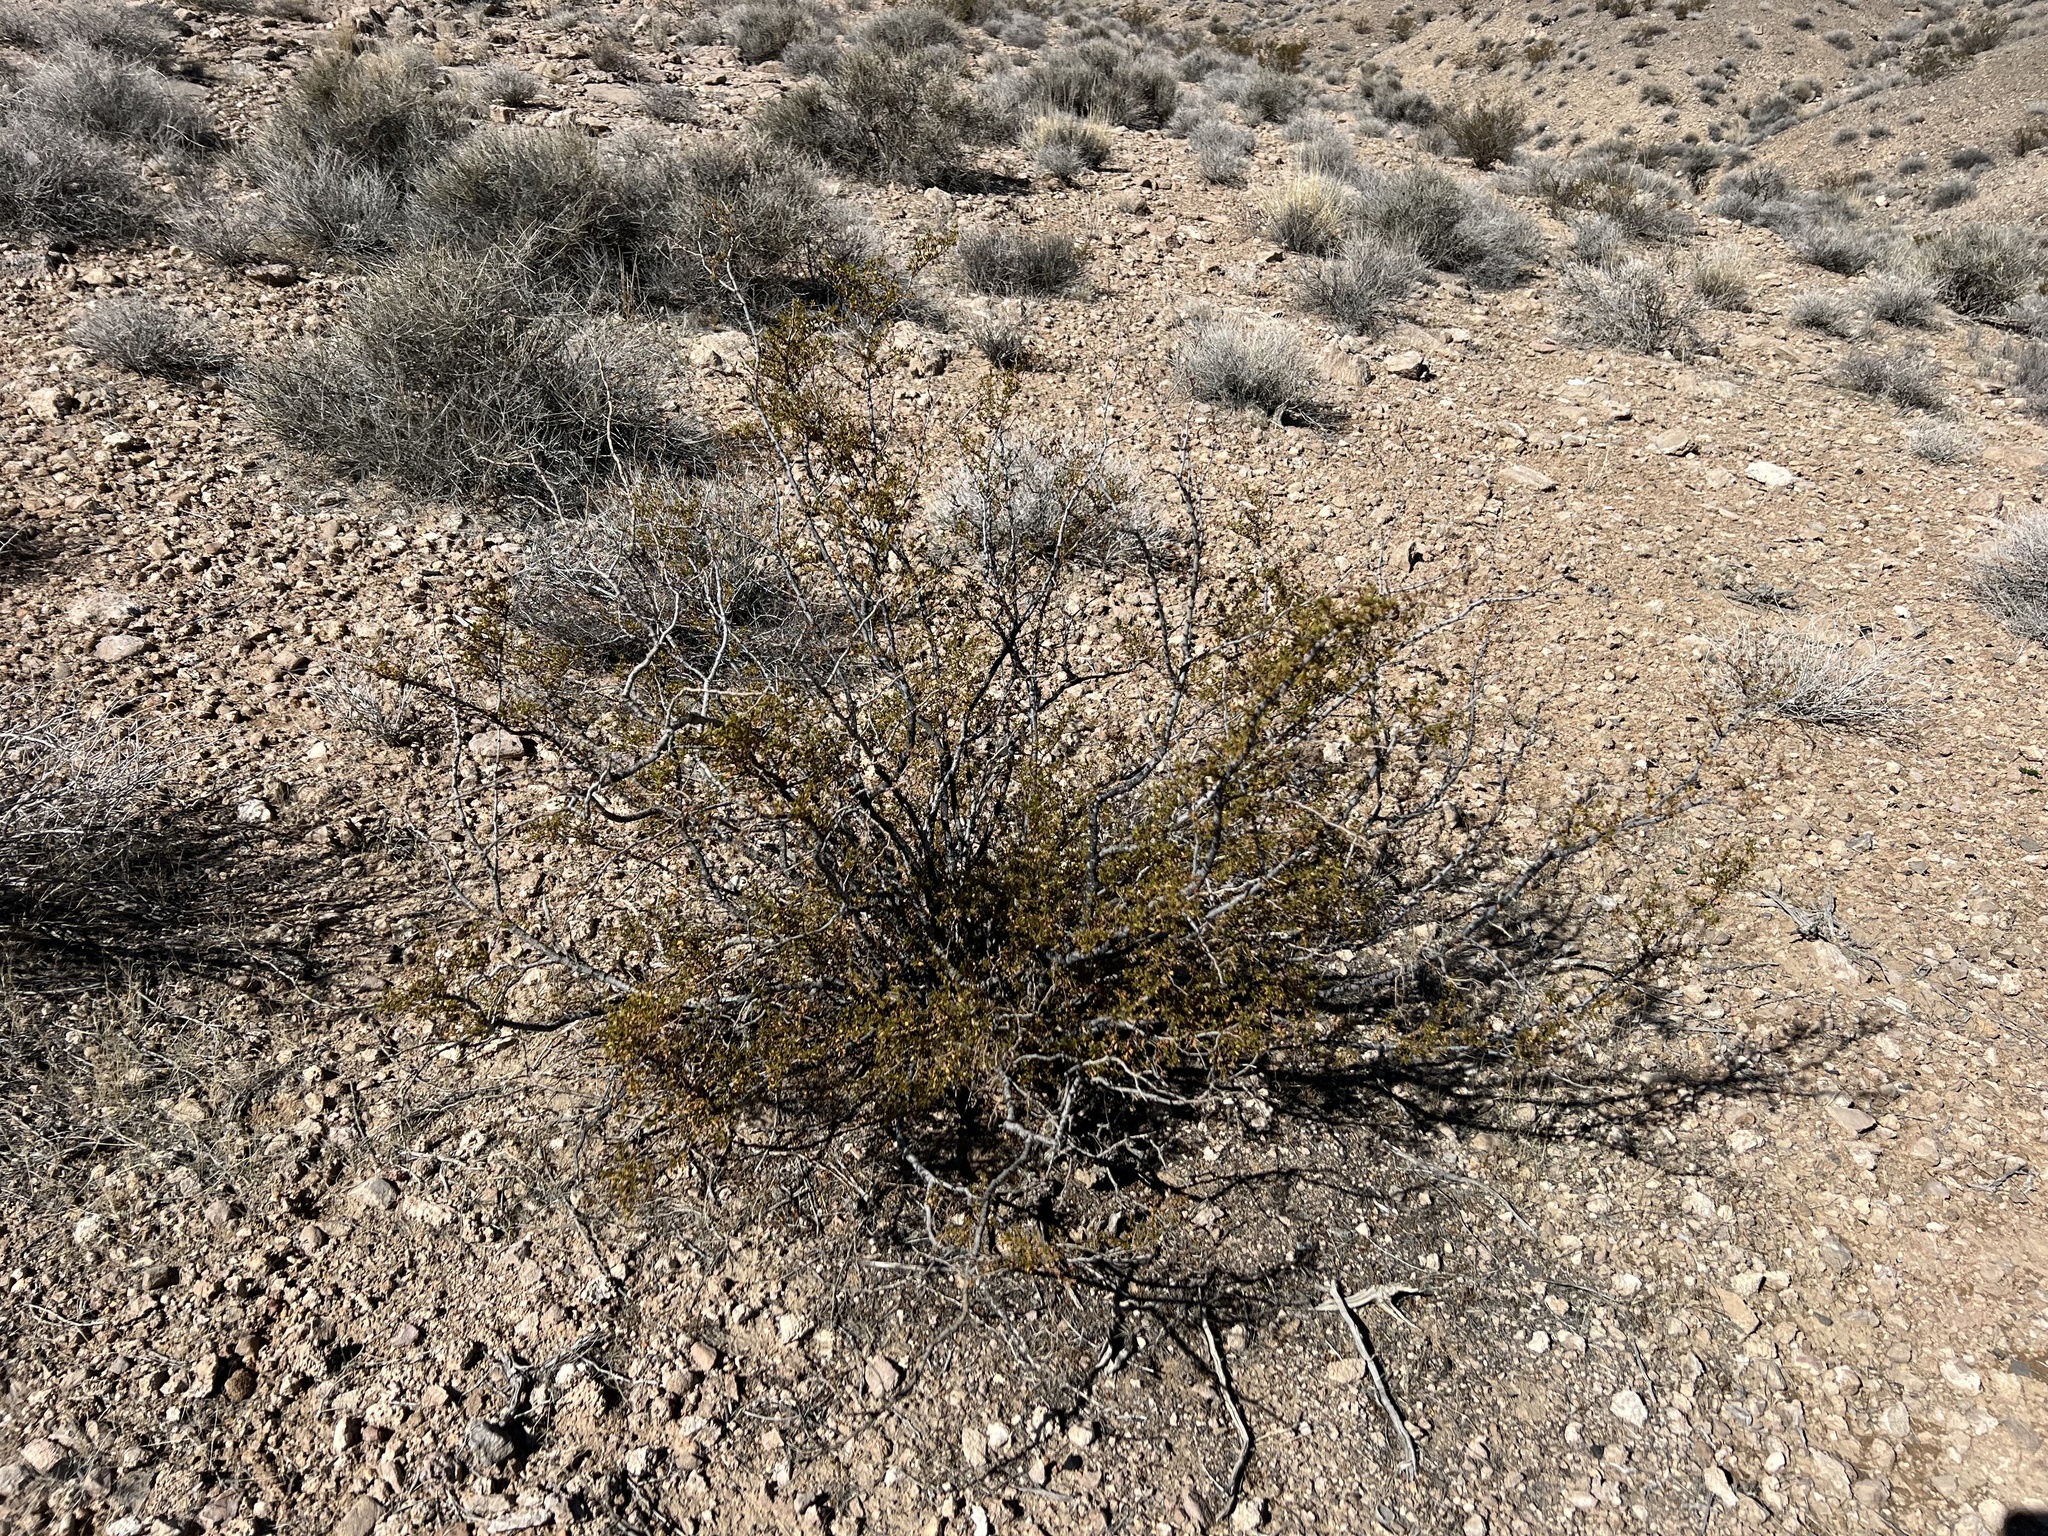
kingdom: Plantae
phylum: Tracheophyta
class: Magnoliopsida
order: Zygophyllales
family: Zygophyllaceae
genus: Larrea
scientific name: Larrea tridentata
